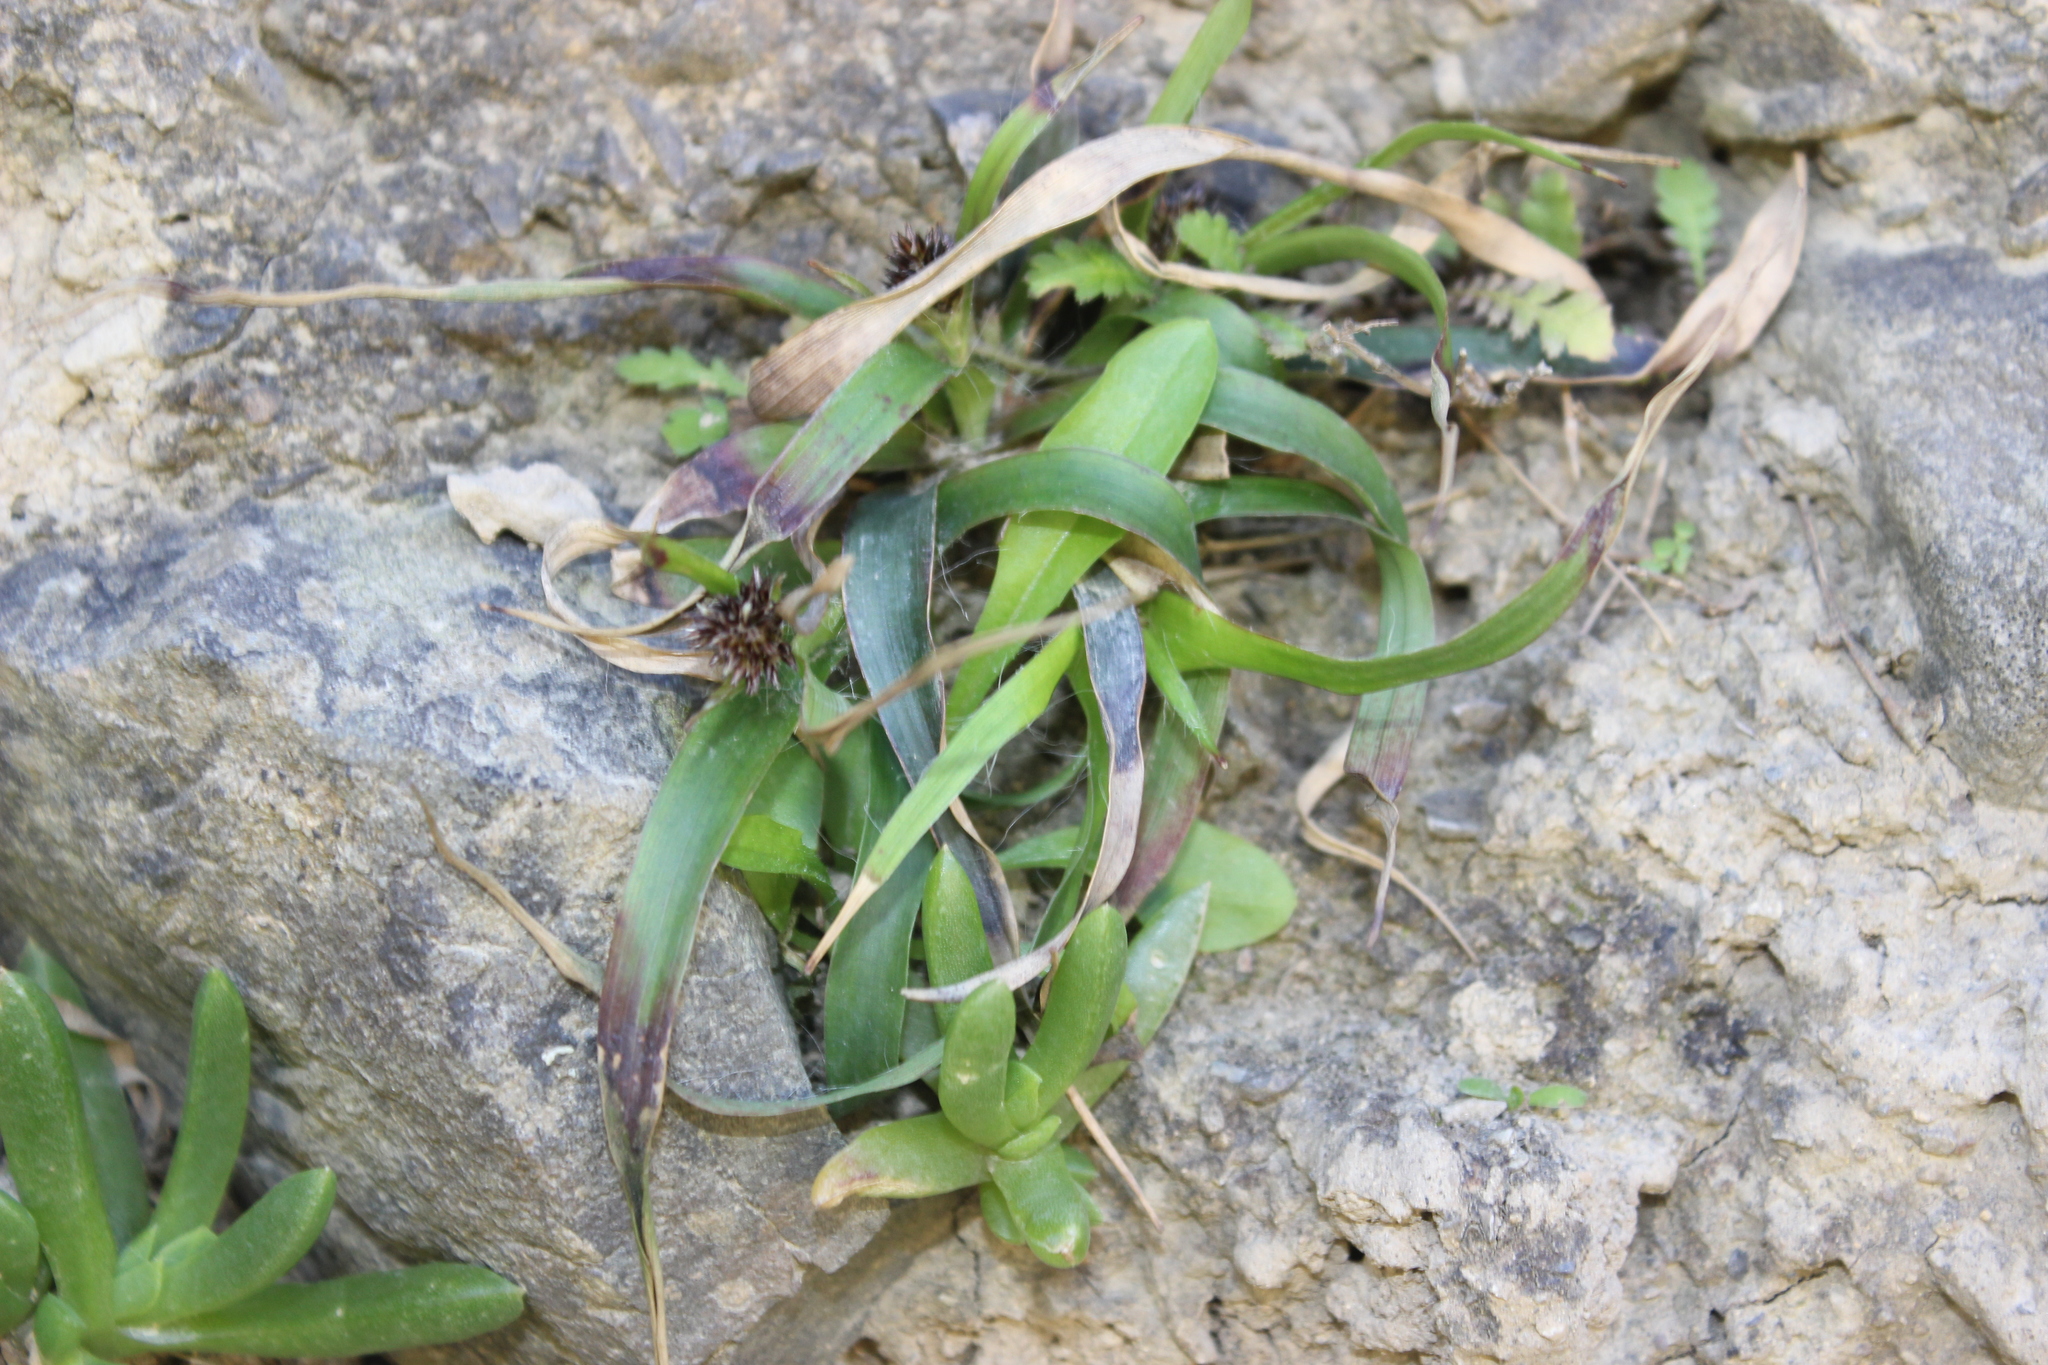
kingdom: Plantae
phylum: Tracheophyta
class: Liliopsida
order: Poales
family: Juncaceae
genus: Luzula
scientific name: Luzula banksiana
